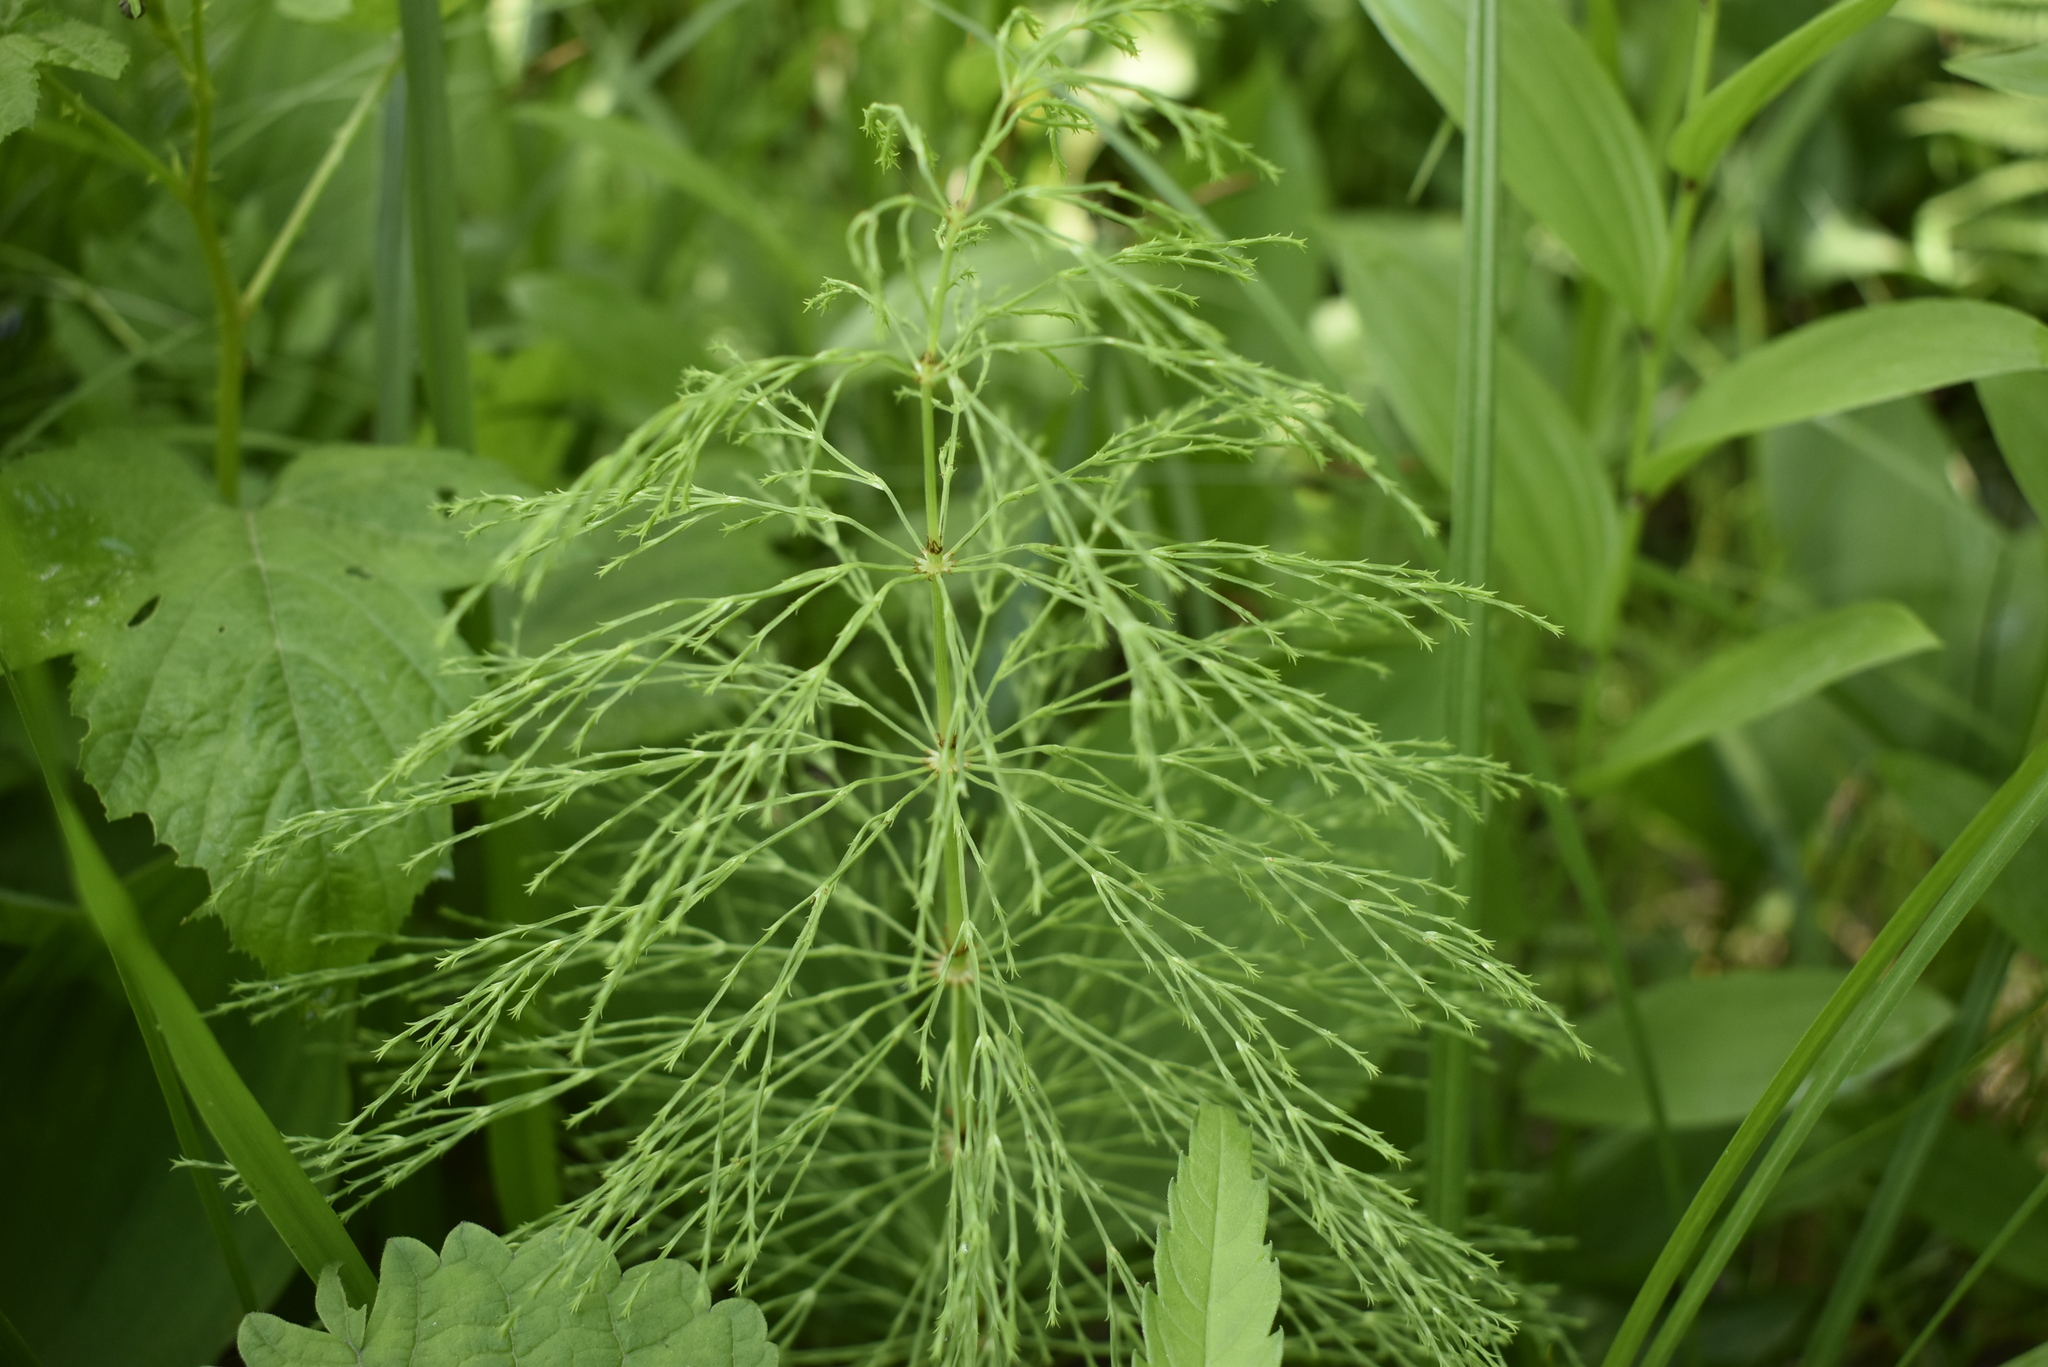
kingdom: Plantae
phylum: Tracheophyta
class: Polypodiopsida
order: Equisetales
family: Equisetaceae
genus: Equisetum
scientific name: Equisetum sylvaticum
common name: Wood horsetail
